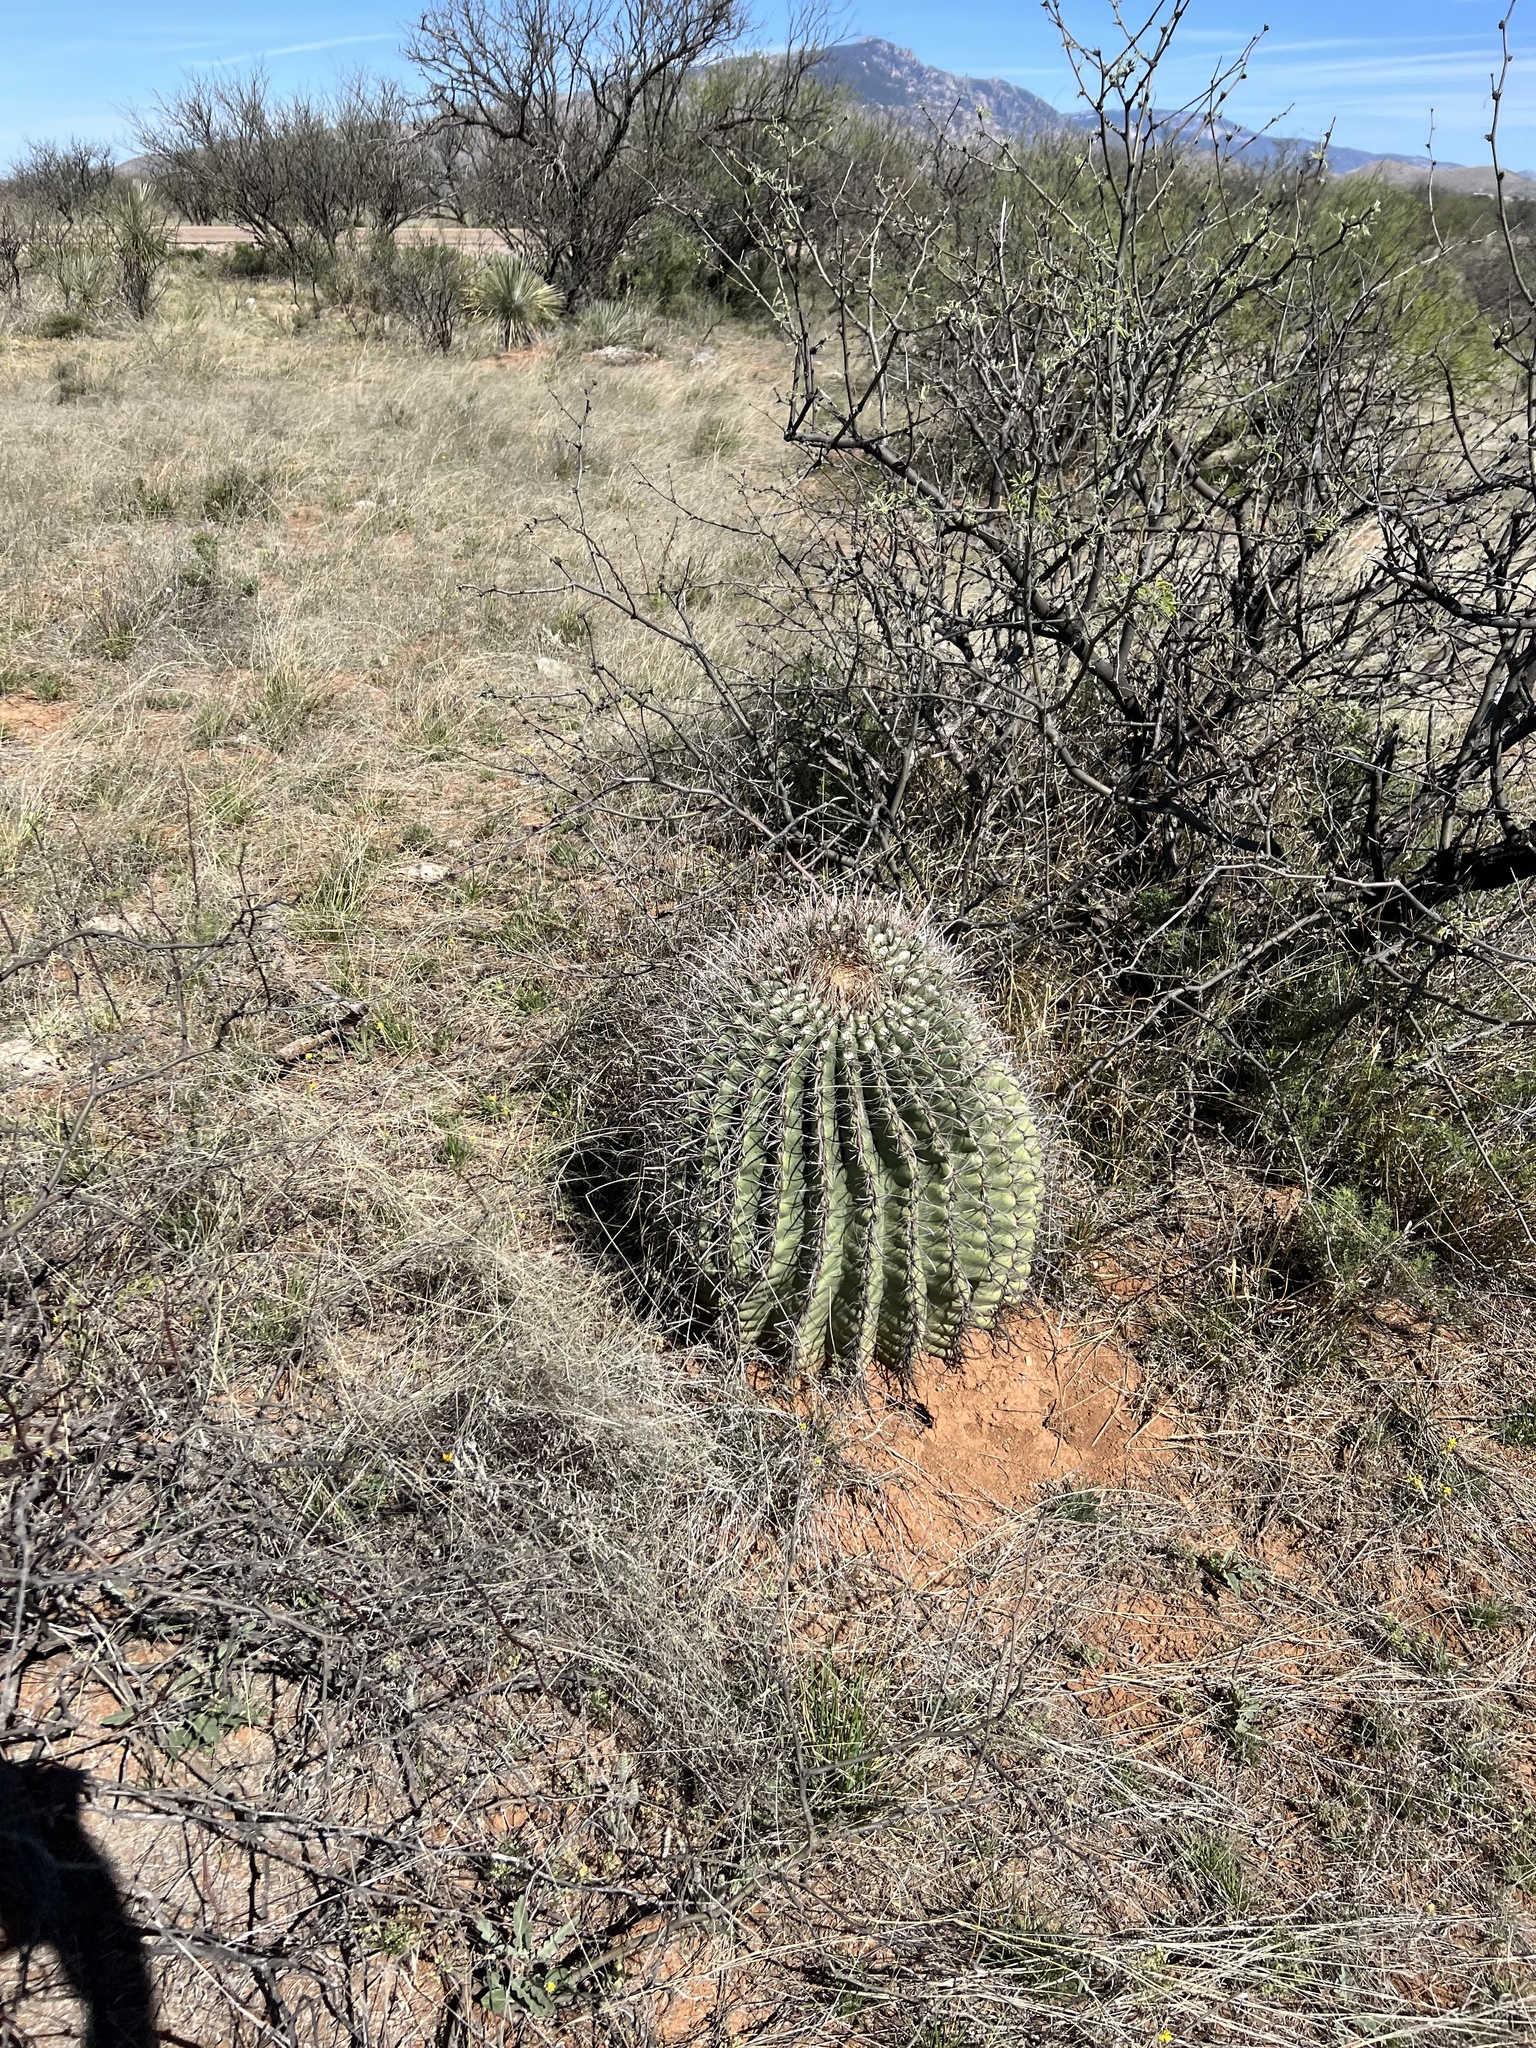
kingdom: Plantae
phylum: Tracheophyta
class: Magnoliopsida
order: Caryophyllales
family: Cactaceae
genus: Ferocactus
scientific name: Ferocactus wislizeni
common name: Candy barrel cactus
